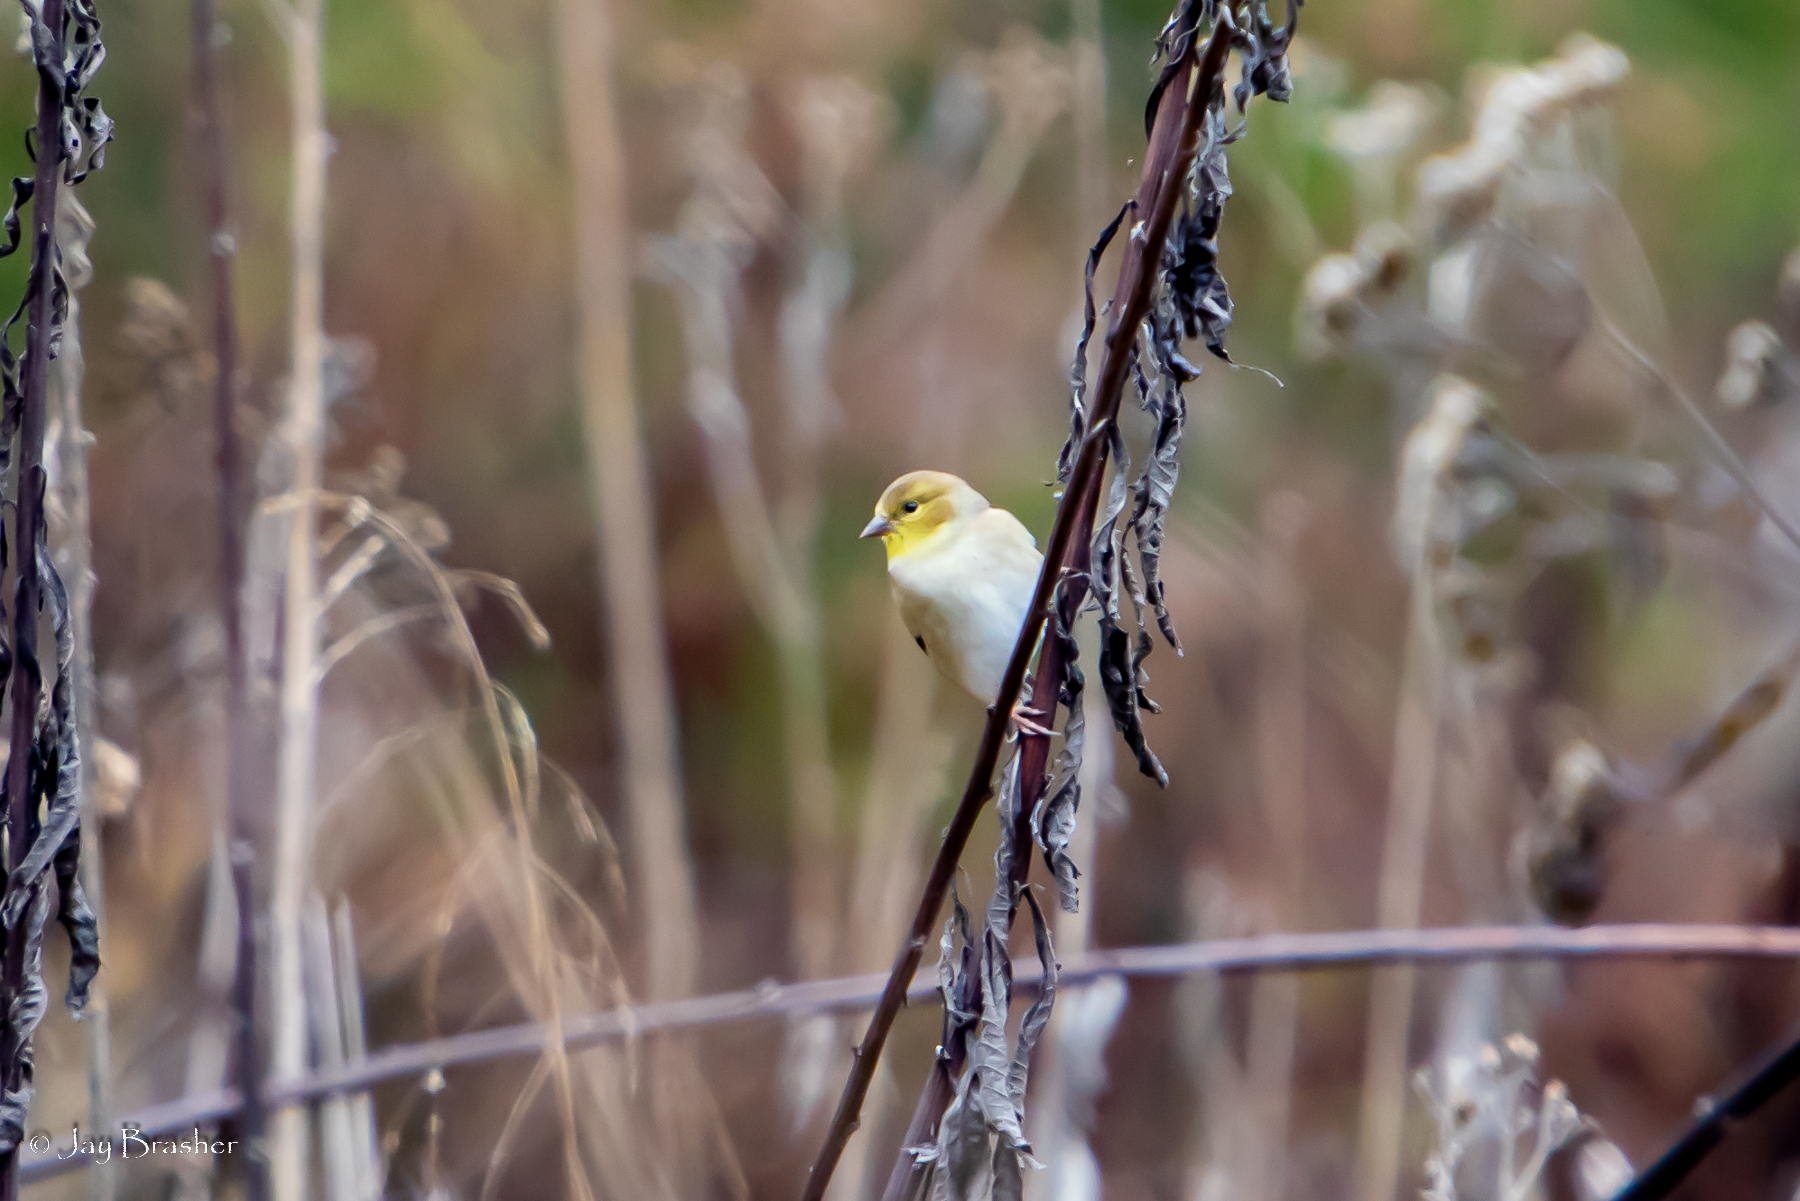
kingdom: Animalia
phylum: Chordata
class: Aves
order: Passeriformes
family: Fringillidae
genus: Spinus
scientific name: Spinus tristis
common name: American goldfinch
